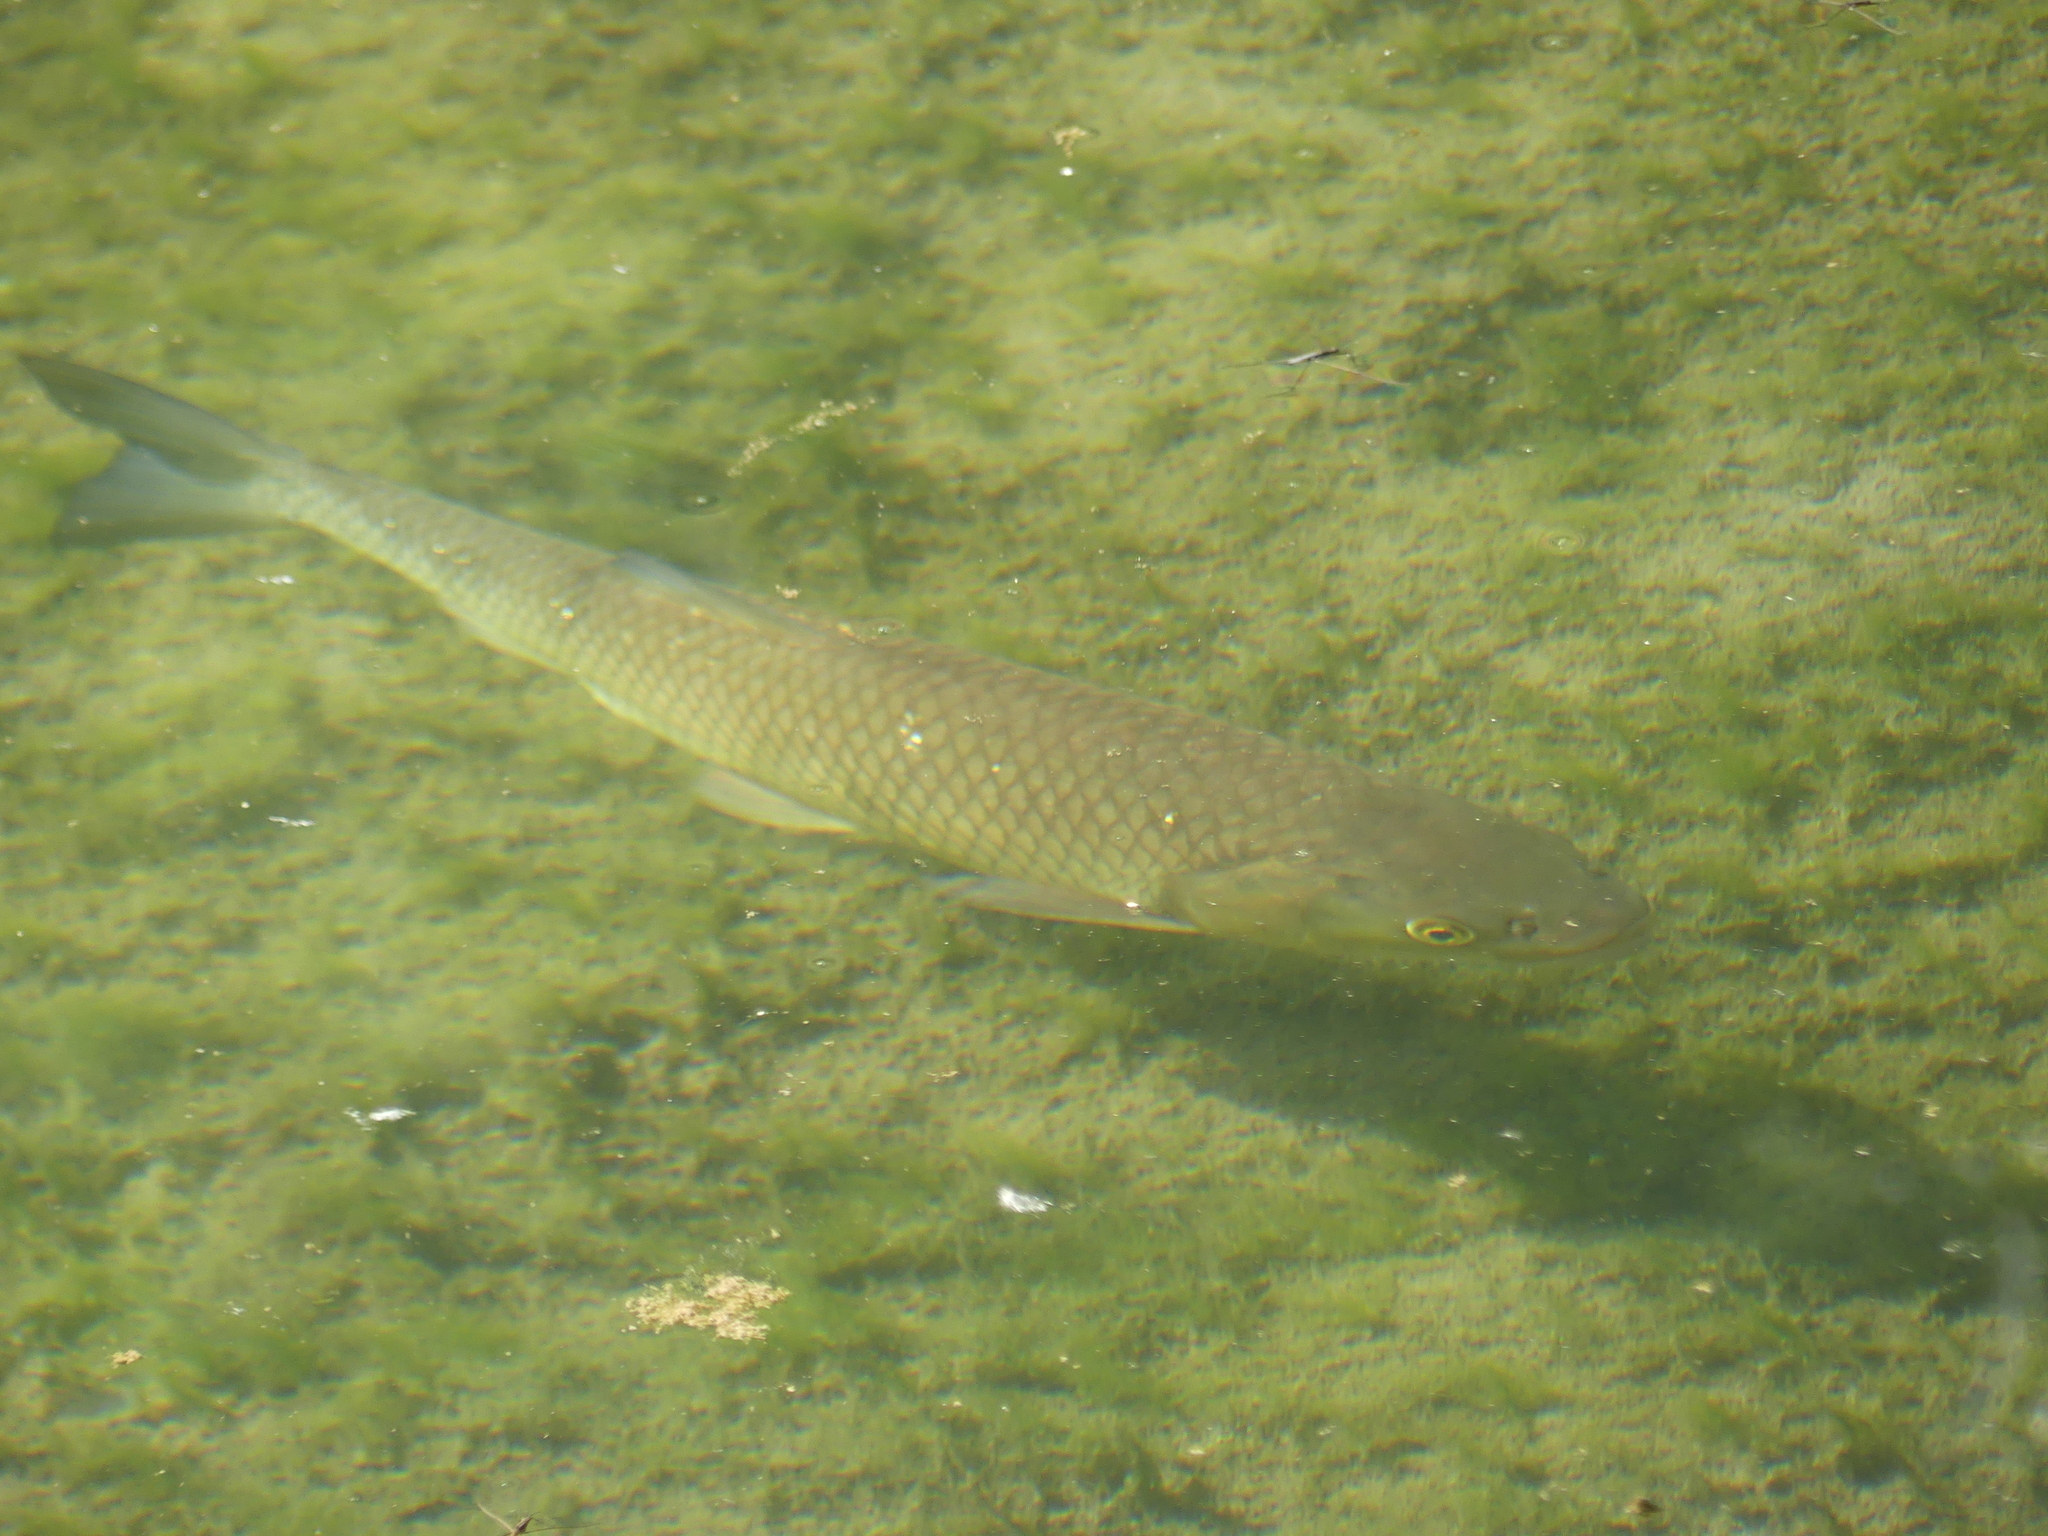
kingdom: Animalia
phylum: Chordata
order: Cypriniformes
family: Cyprinidae
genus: Squalius
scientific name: Squalius cephalus
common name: Chub
